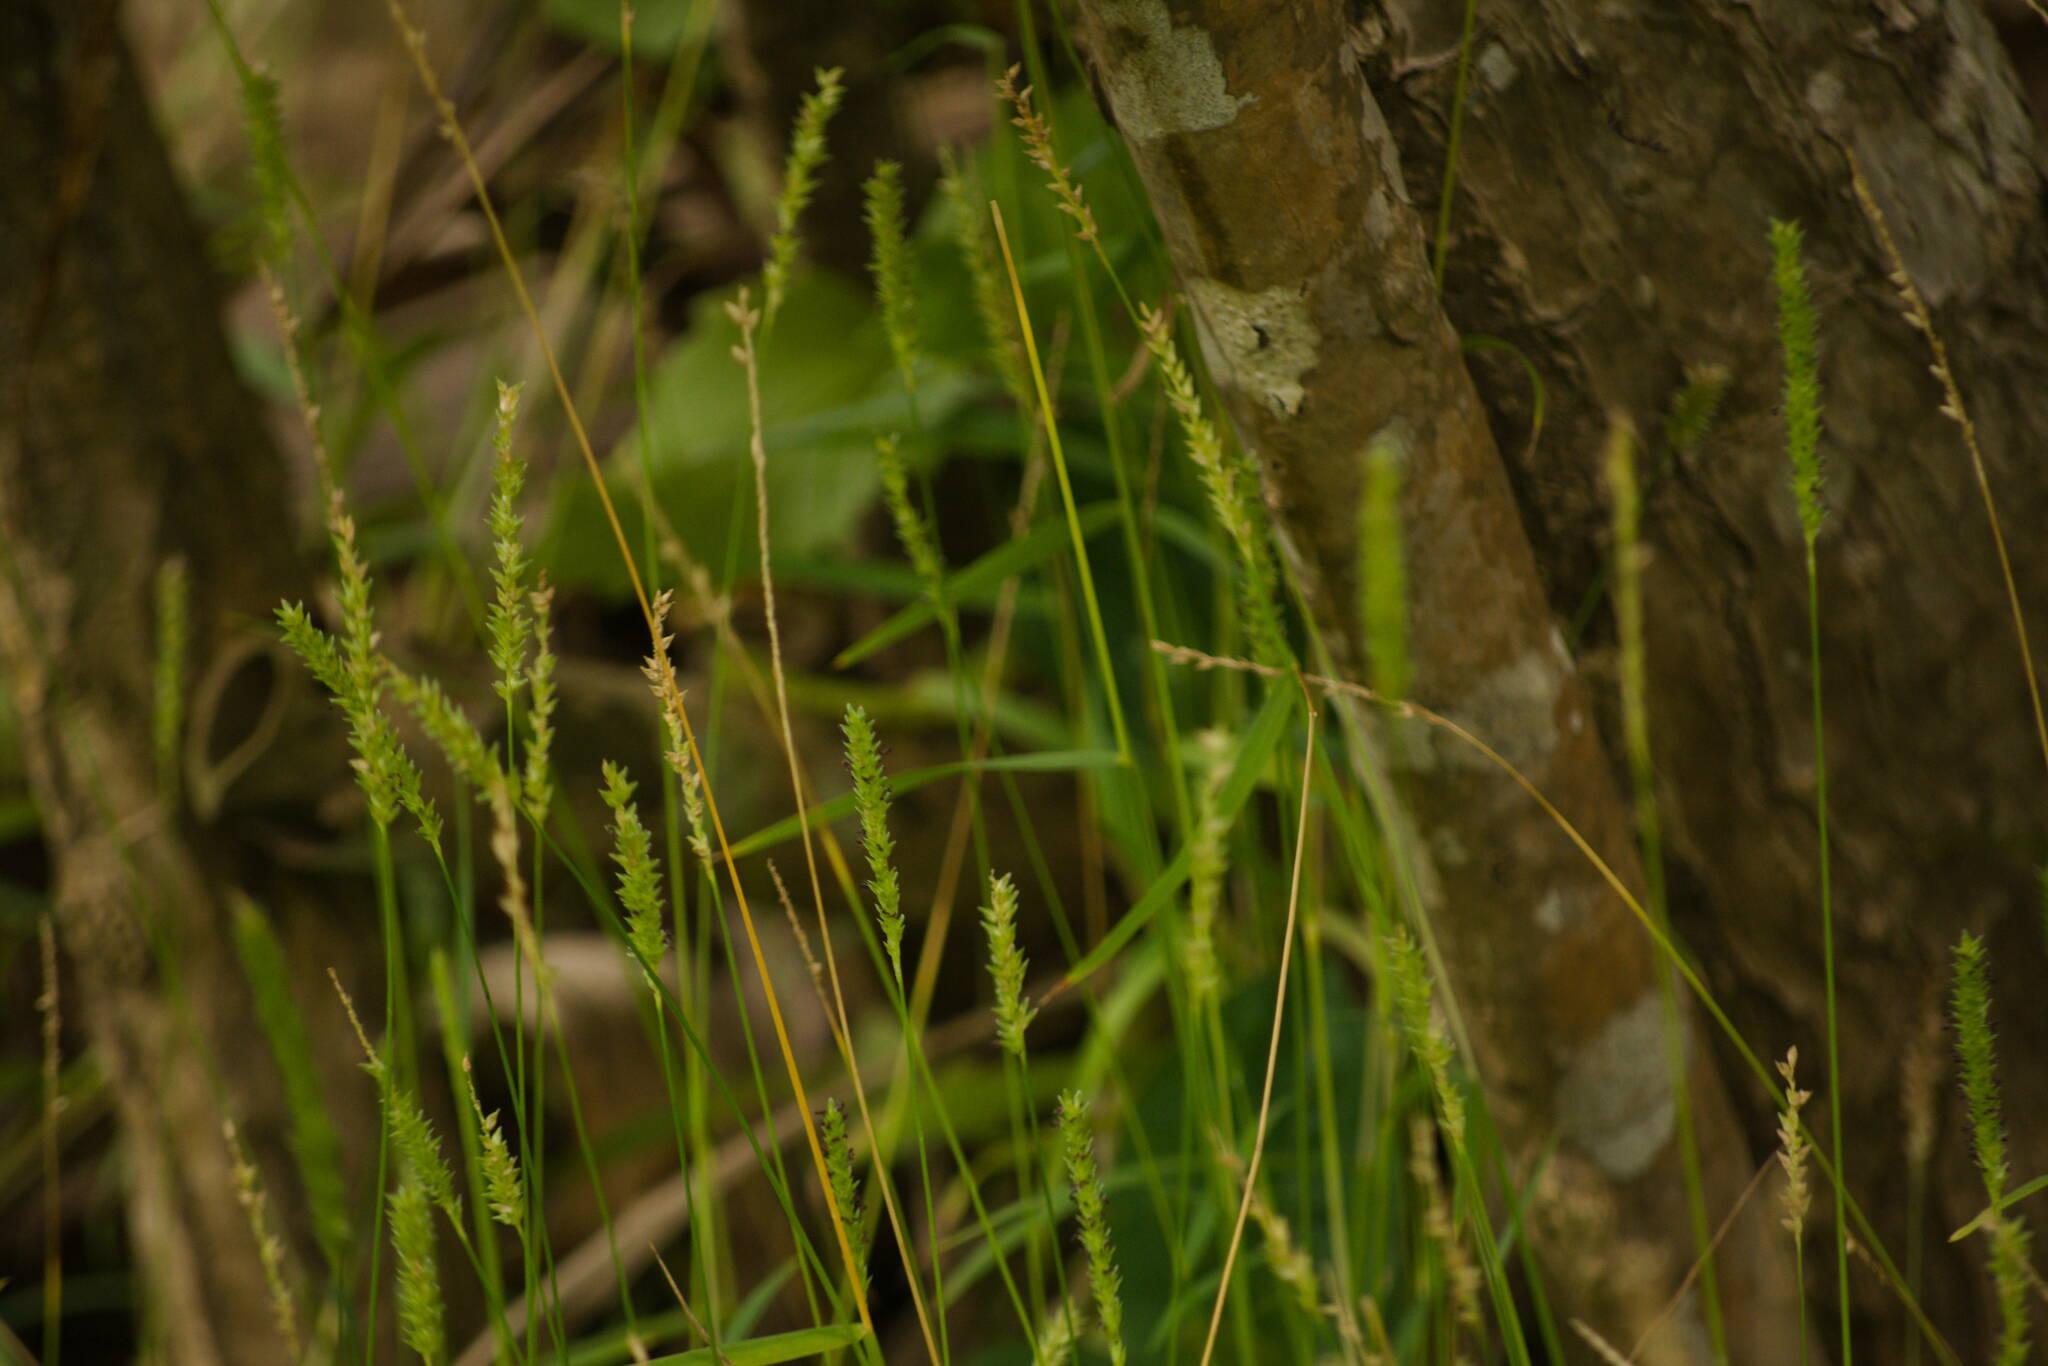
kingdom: Plantae
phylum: Tracheophyta
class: Liliopsida
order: Poales
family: Poaceae
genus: Sacciolepis
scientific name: Sacciolepis indica
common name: Glenwoodgrass
